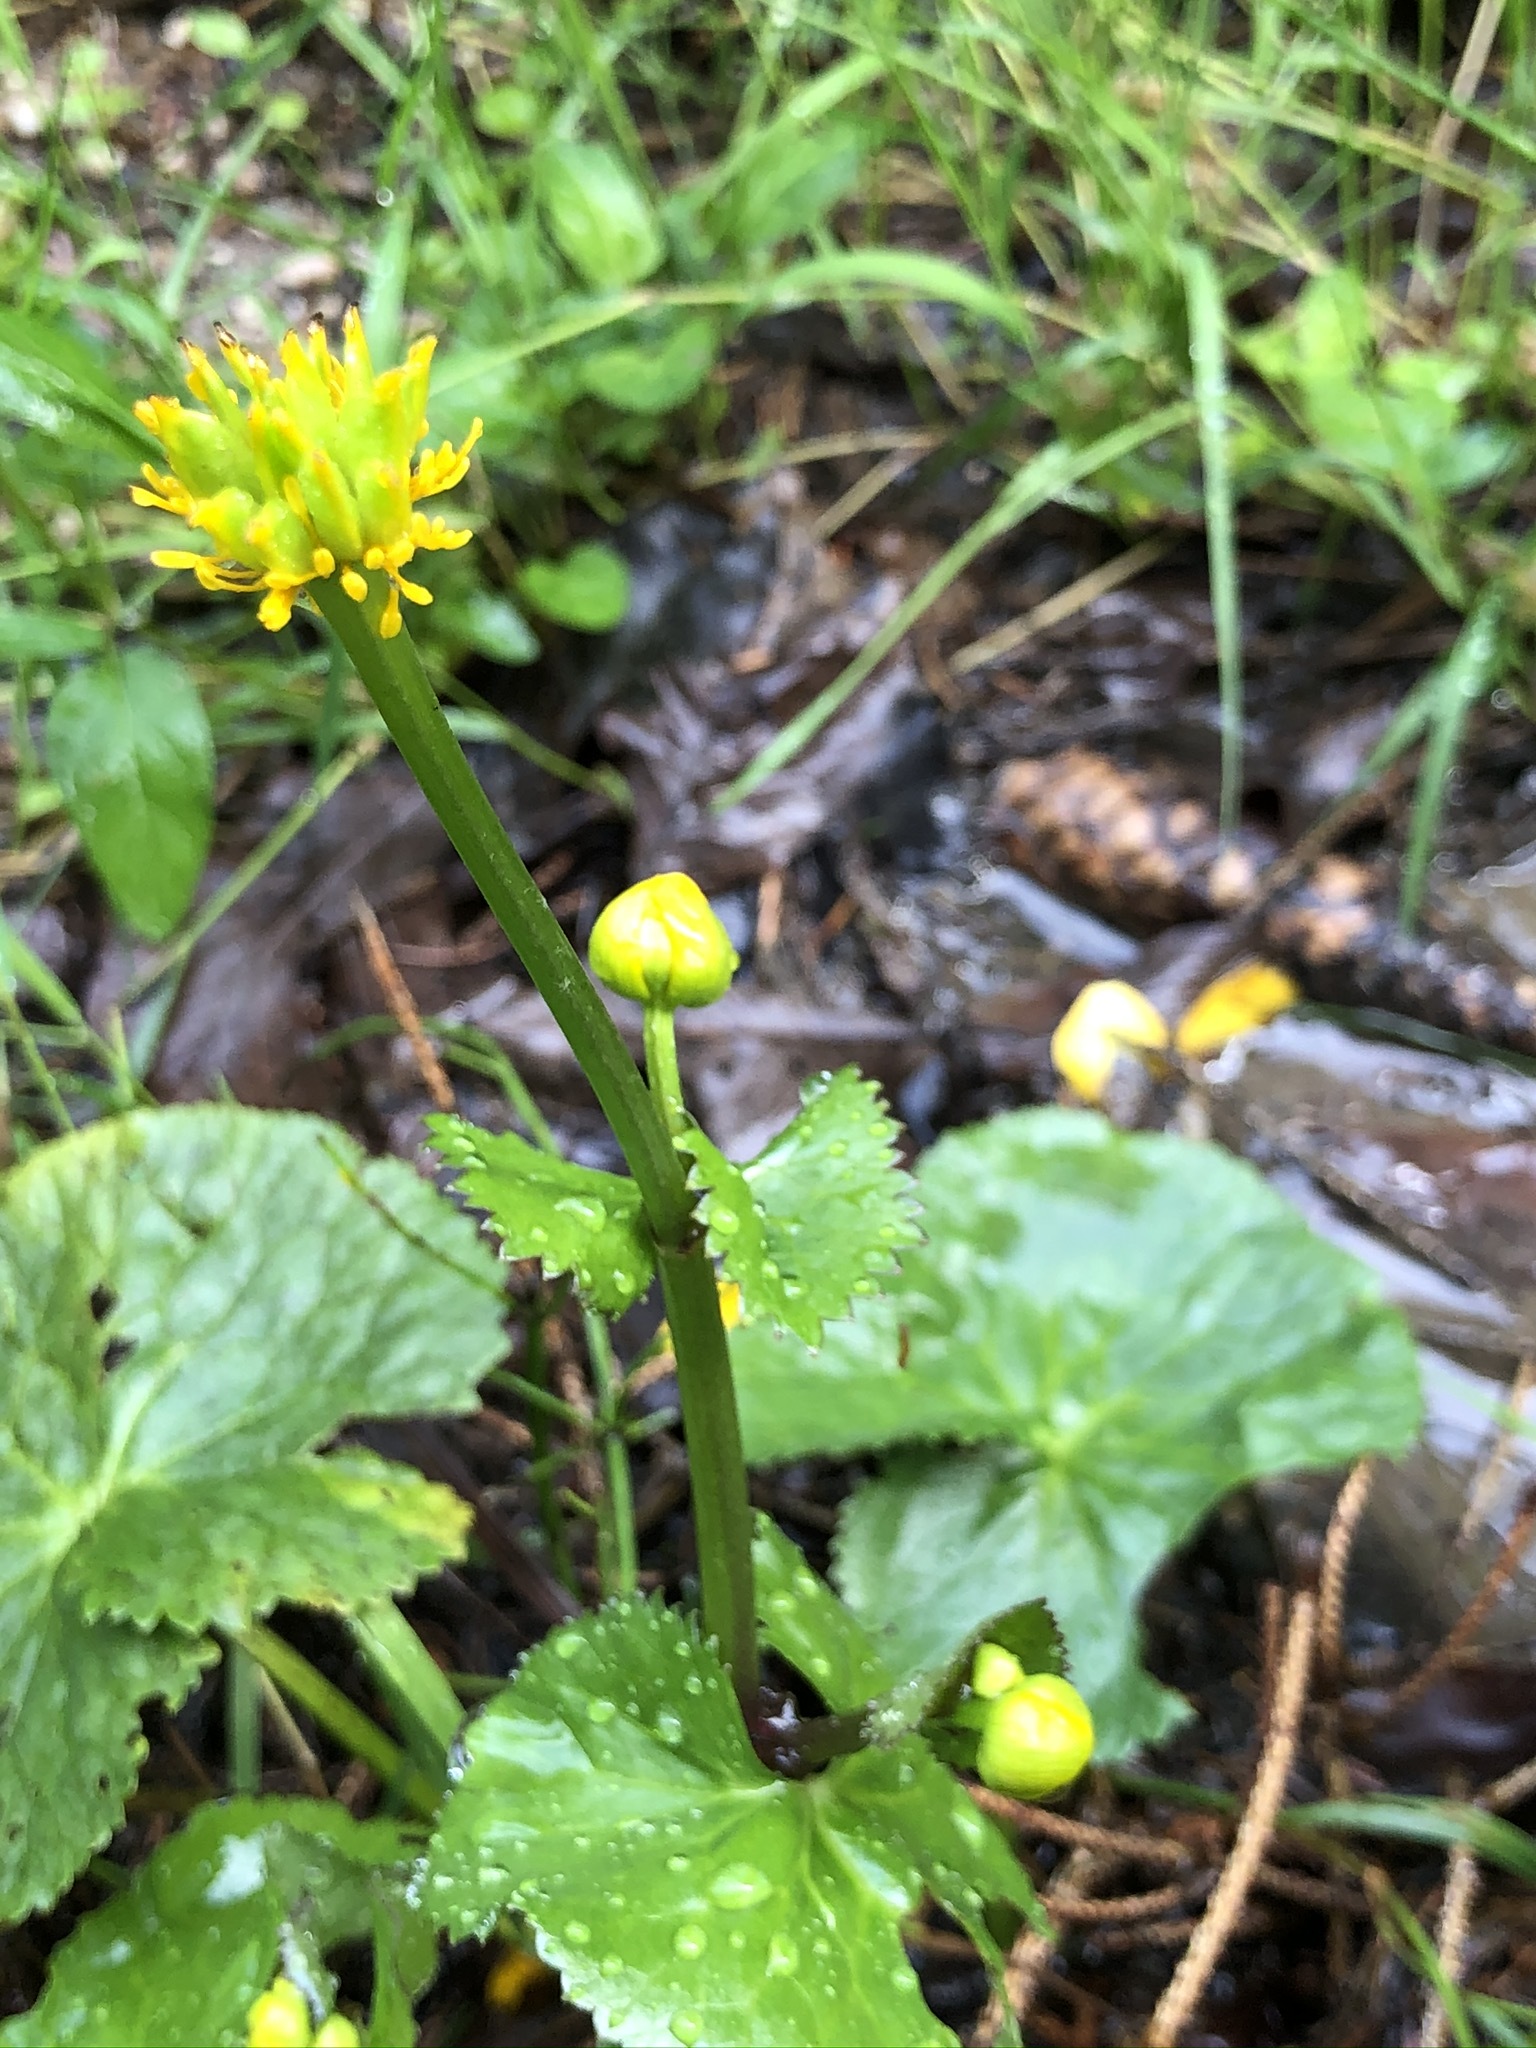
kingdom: Plantae
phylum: Tracheophyta
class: Magnoliopsida
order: Ranunculales
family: Ranunculaceae
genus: Caltha
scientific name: Caltha palustris
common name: Marsh marigold
